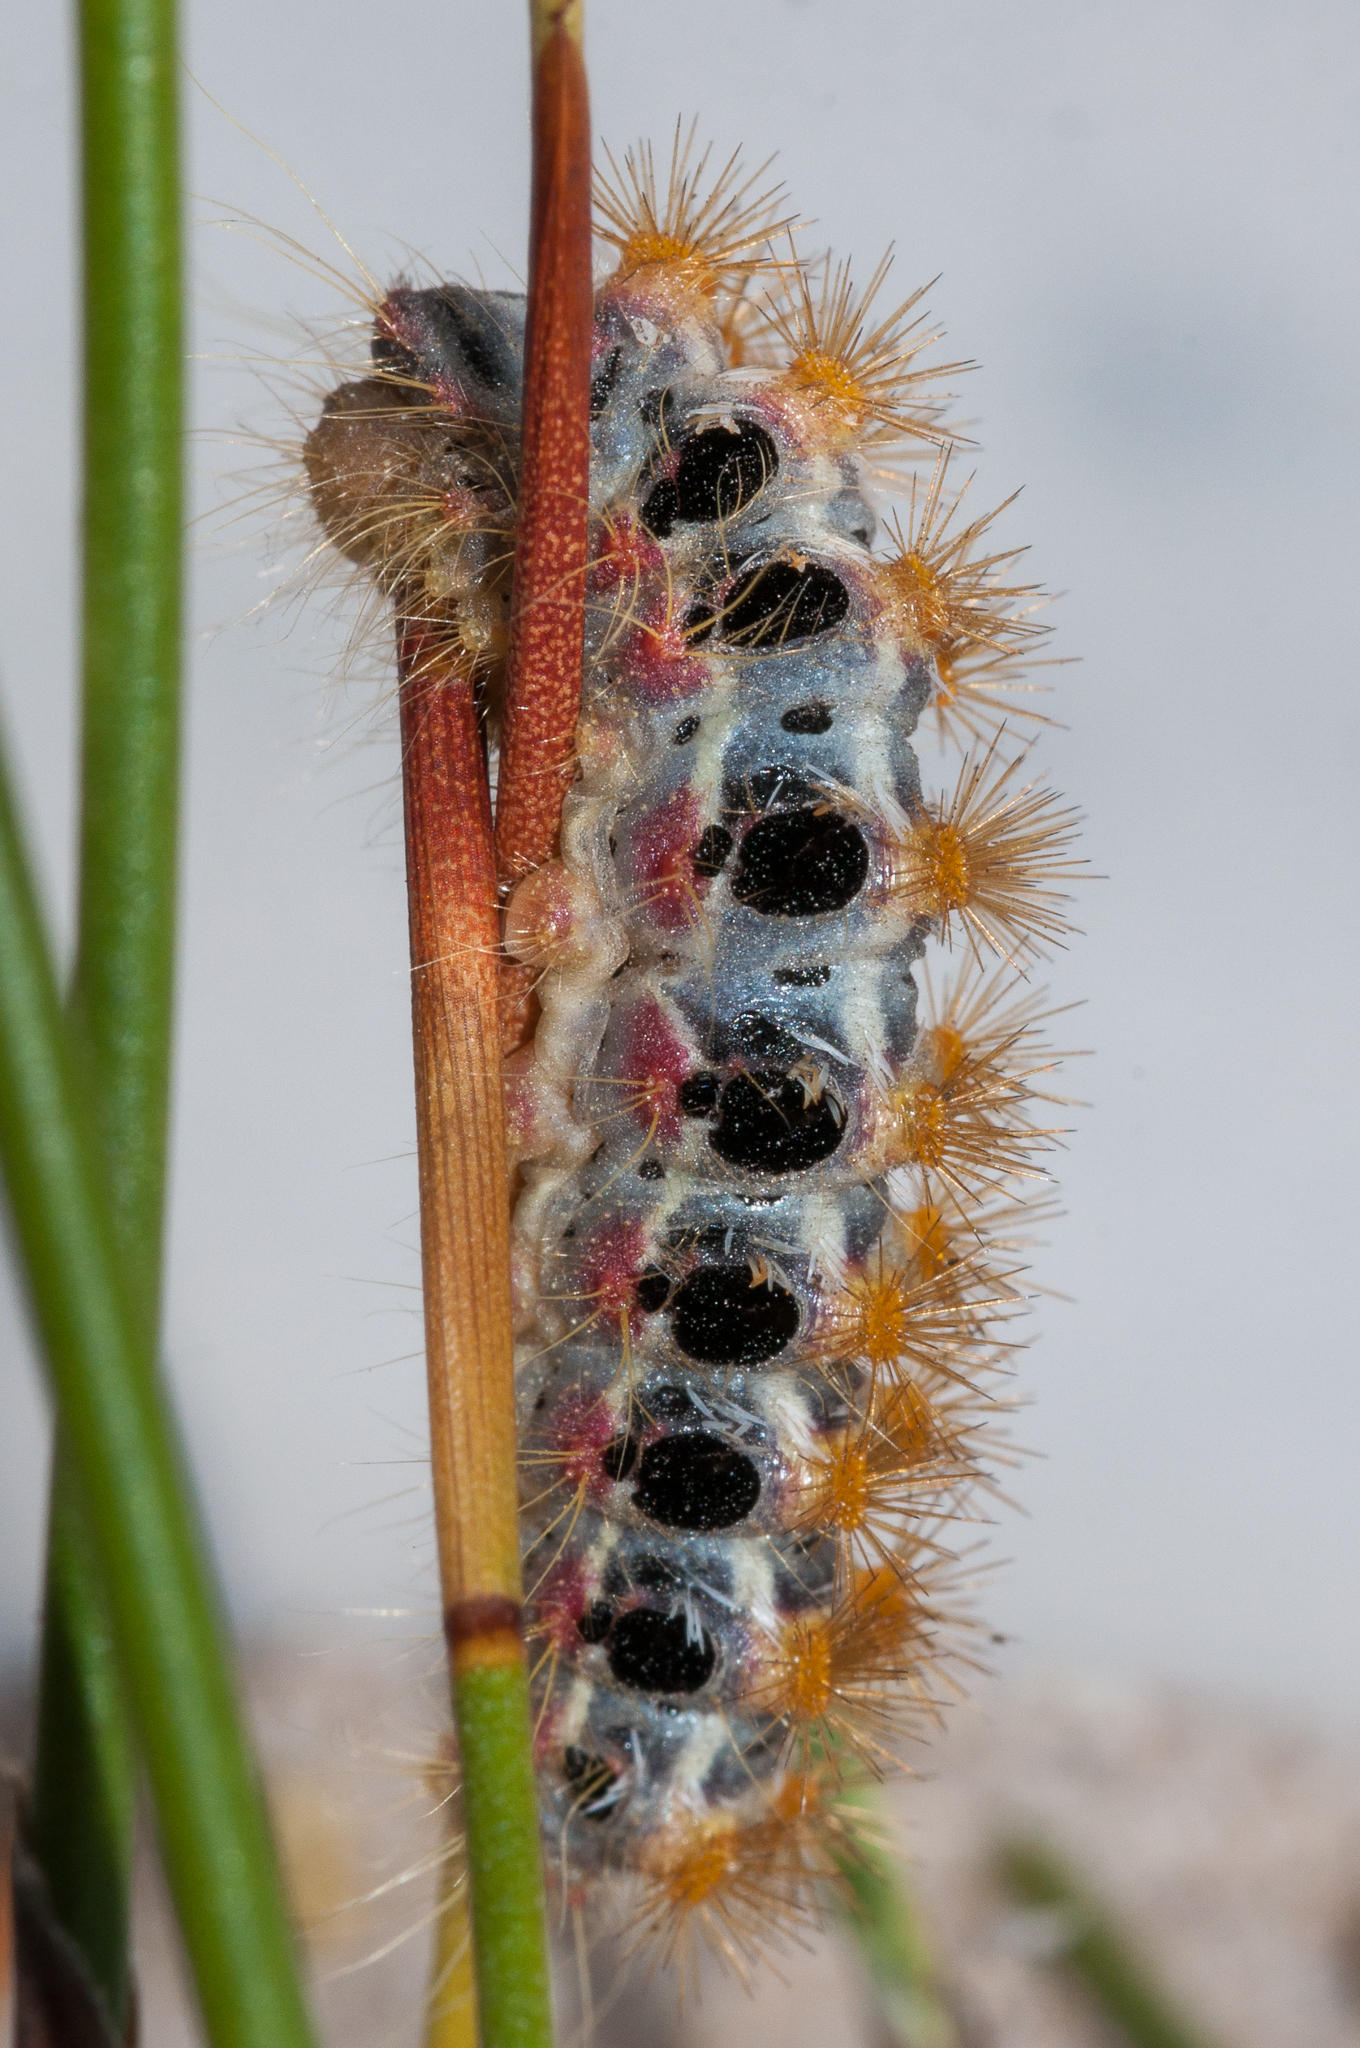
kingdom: Animalia
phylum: Arthropoda
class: Insecta
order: Lepidoptera
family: Somabrachyidae
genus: Psycharium
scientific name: Psycharium pellucens
